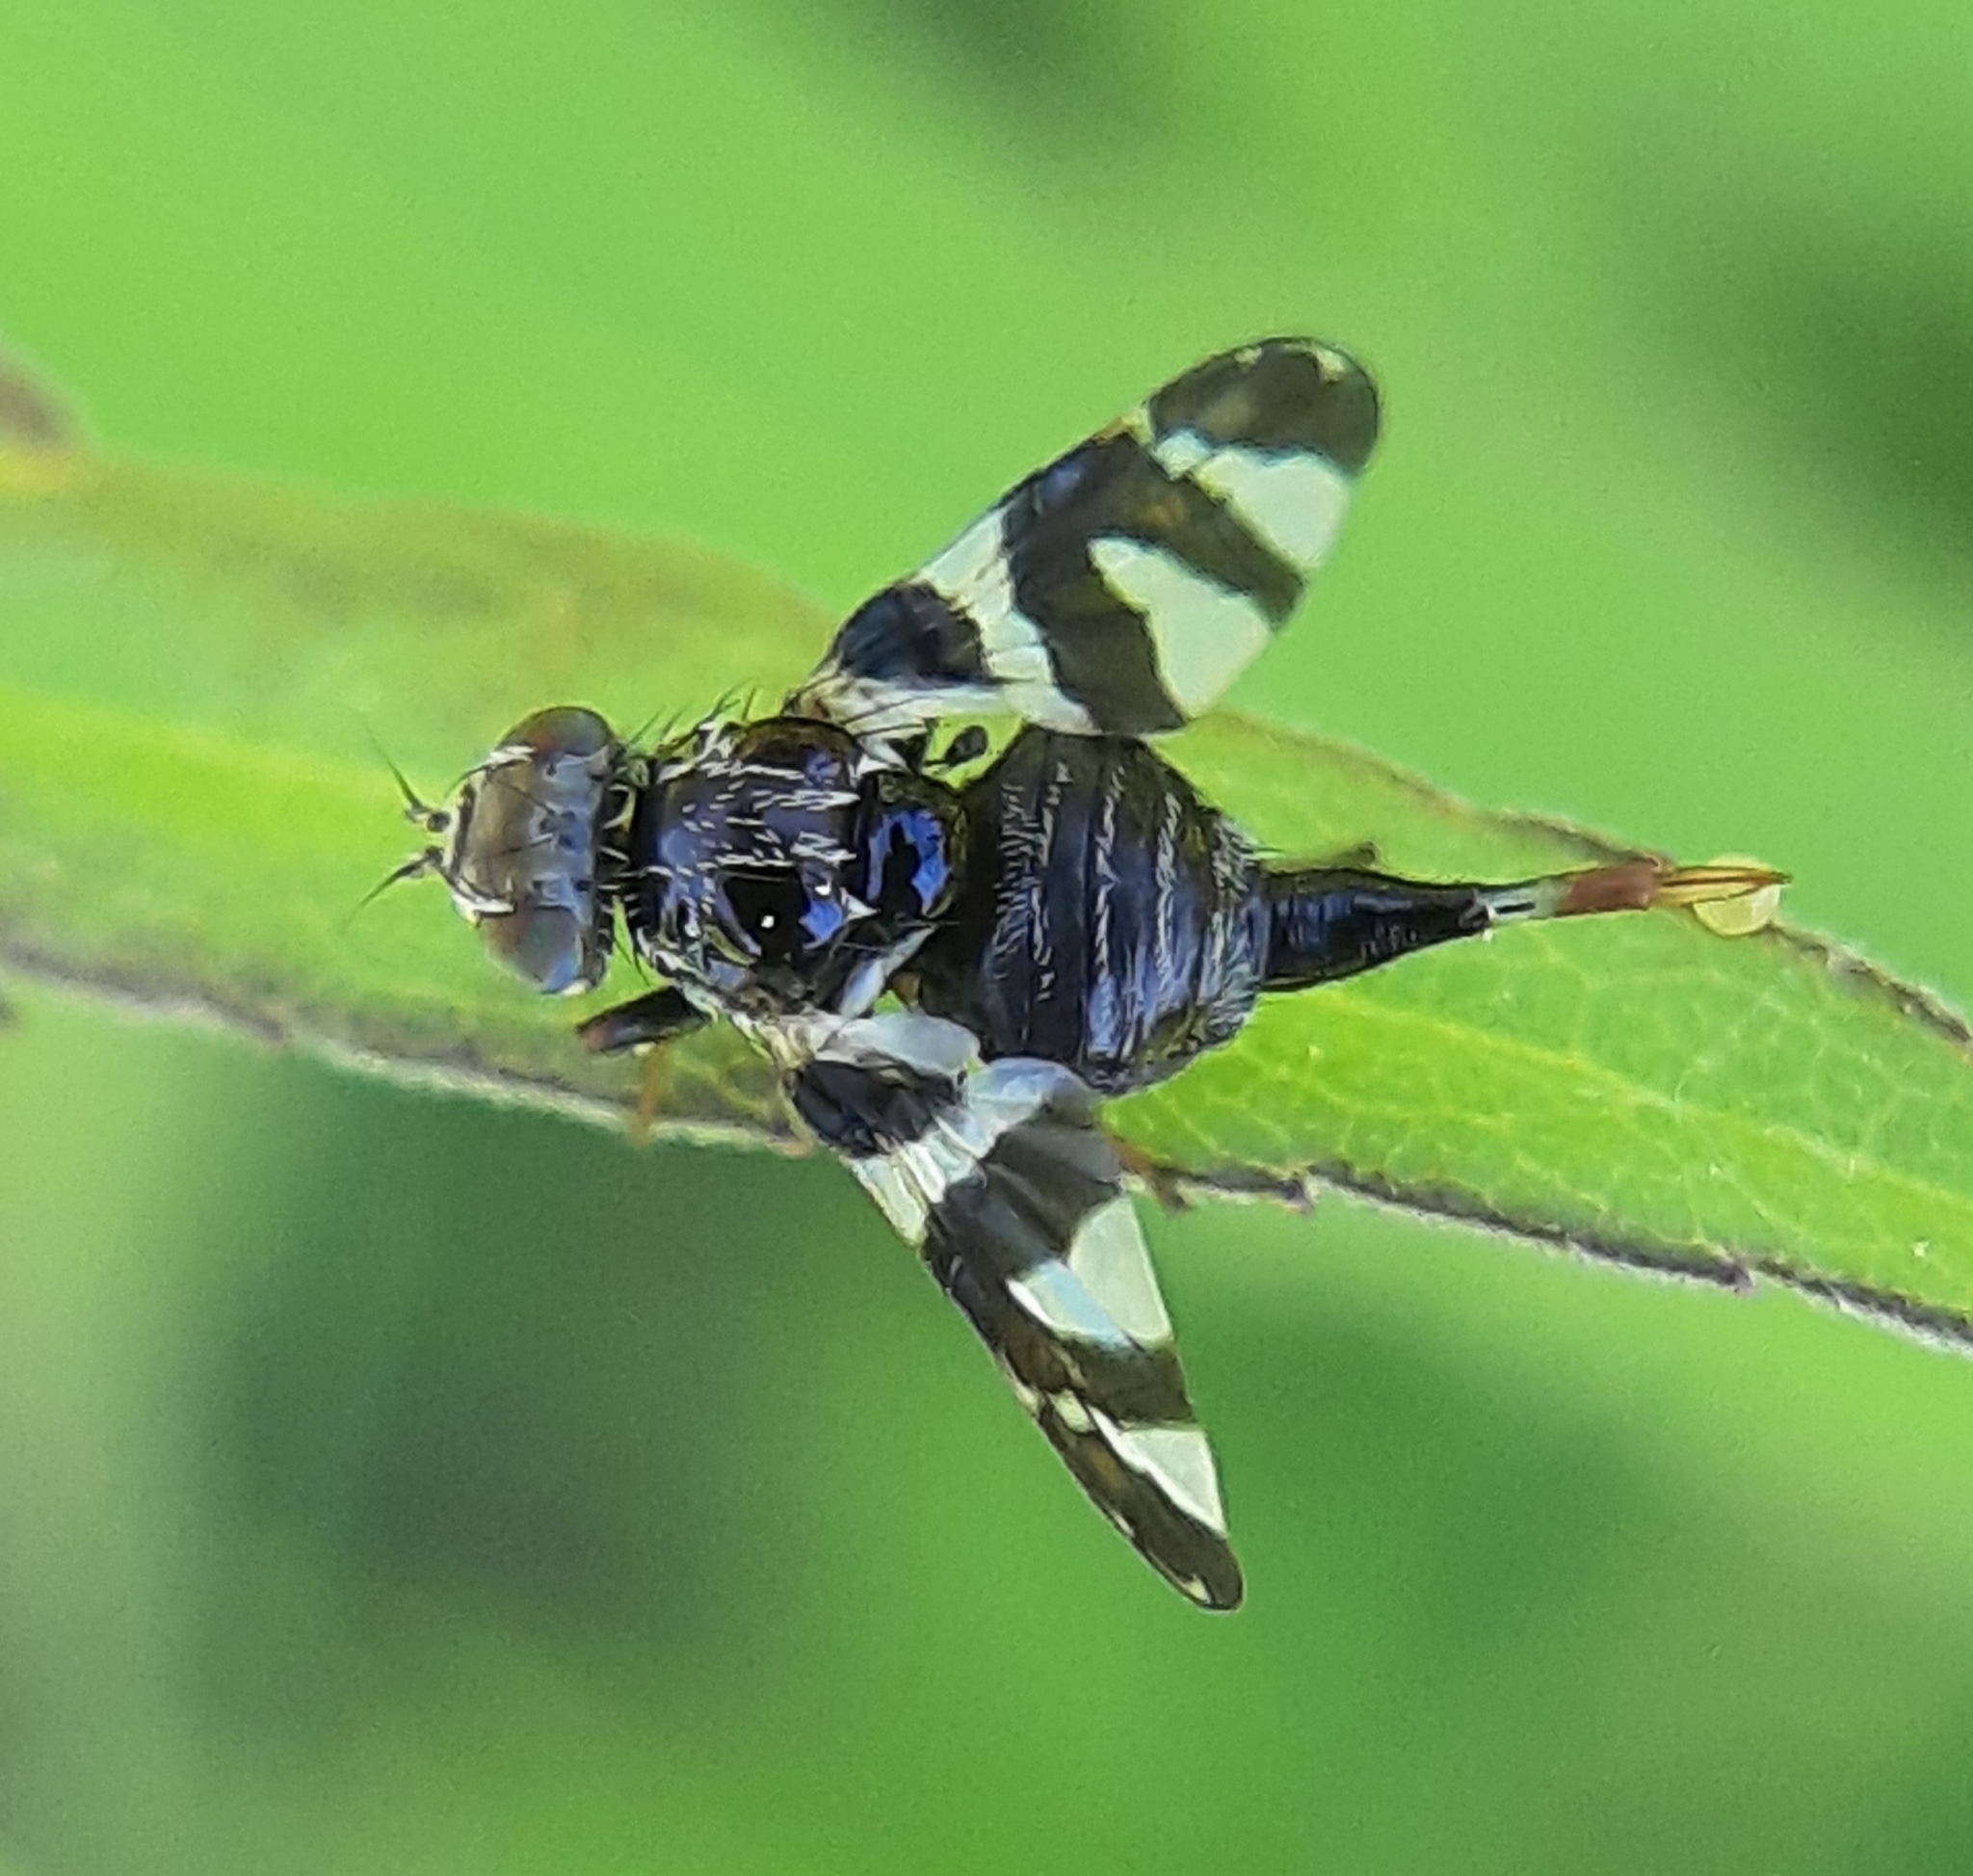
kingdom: Animalia
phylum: Arthropoda
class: Insecta
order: Diptera
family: Tephritidae
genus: Procecidochares
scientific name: Procecidochares atra
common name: Goldenrod brussels sprout gall fly
